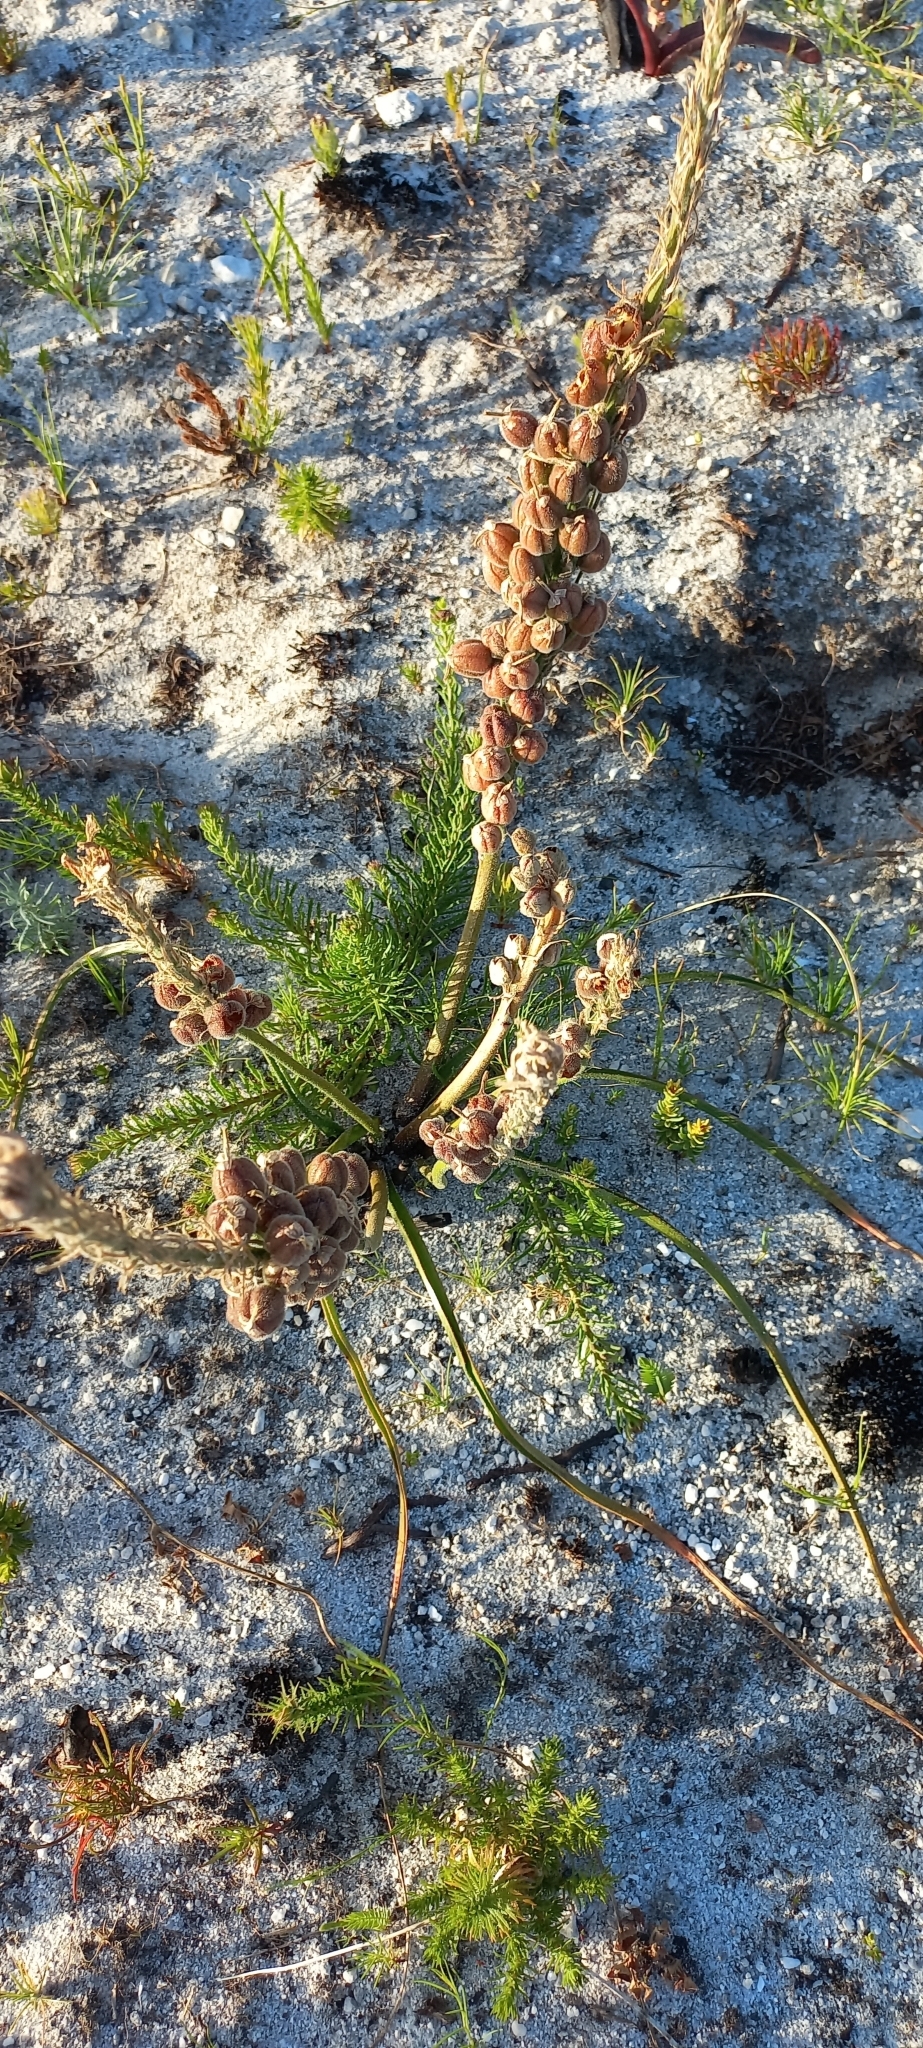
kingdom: Plantae
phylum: Tracheophyta
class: Liliopsida
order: Asparagales
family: Asphodelaceae
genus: Trachyandra
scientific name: Trachyandra hirsutiflora
